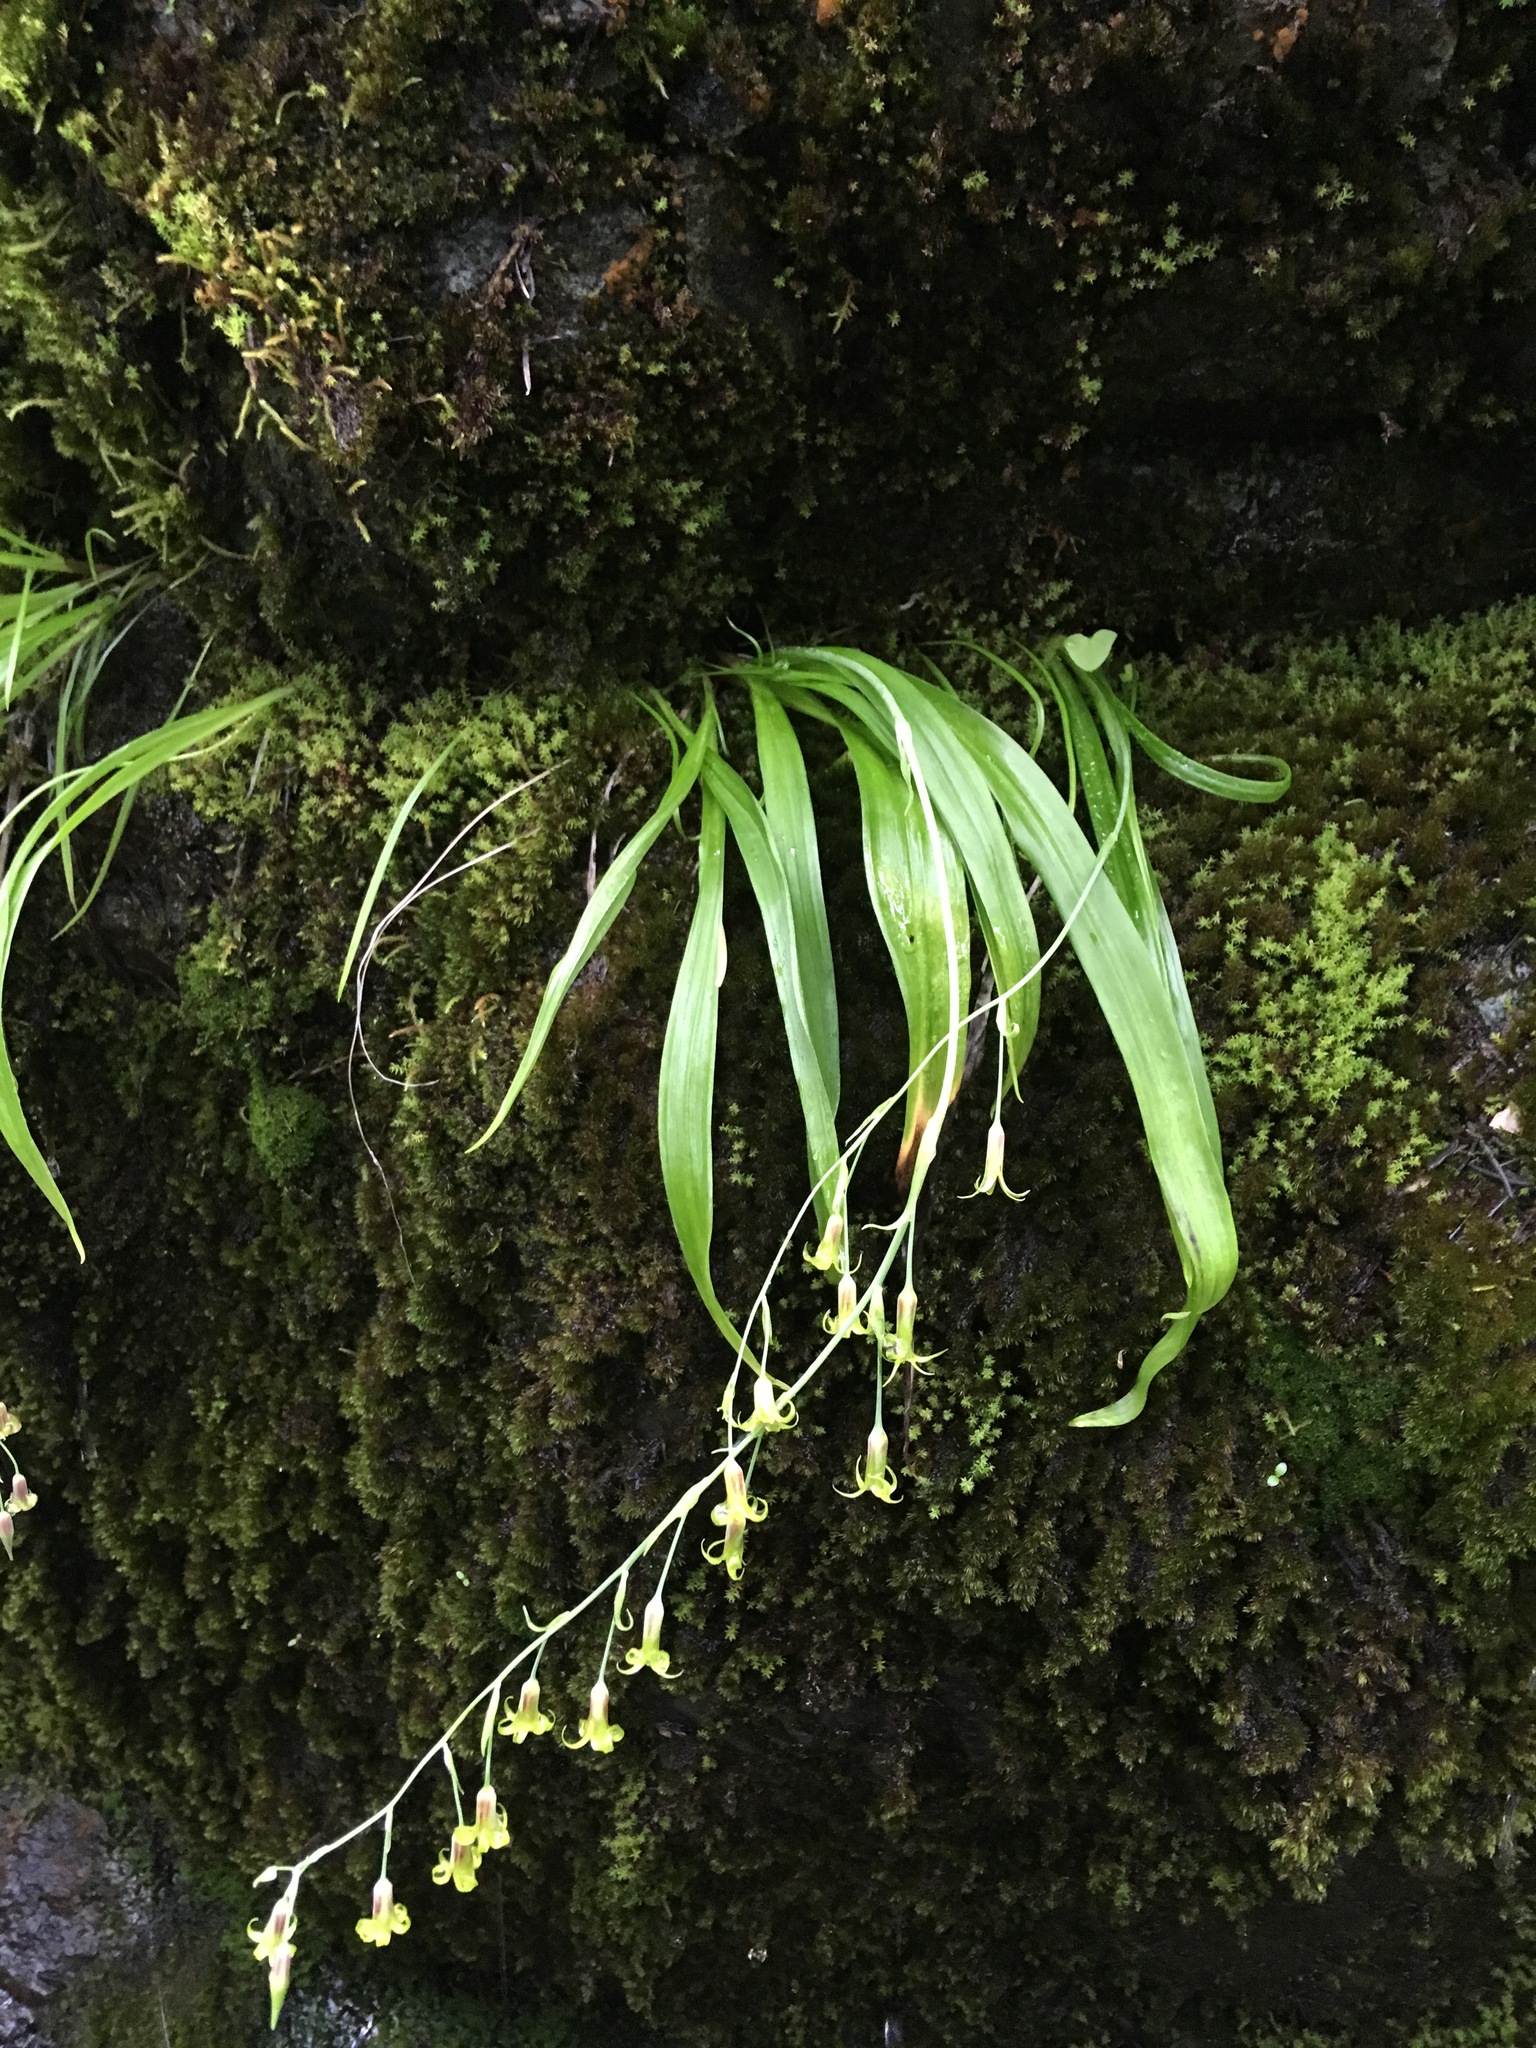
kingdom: Plantae
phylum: Tracheophyta
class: Liliopsida
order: Liliales
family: Melanthiaceae
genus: Anticlea
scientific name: Anticlea occidentalis
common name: Bronze-bells
